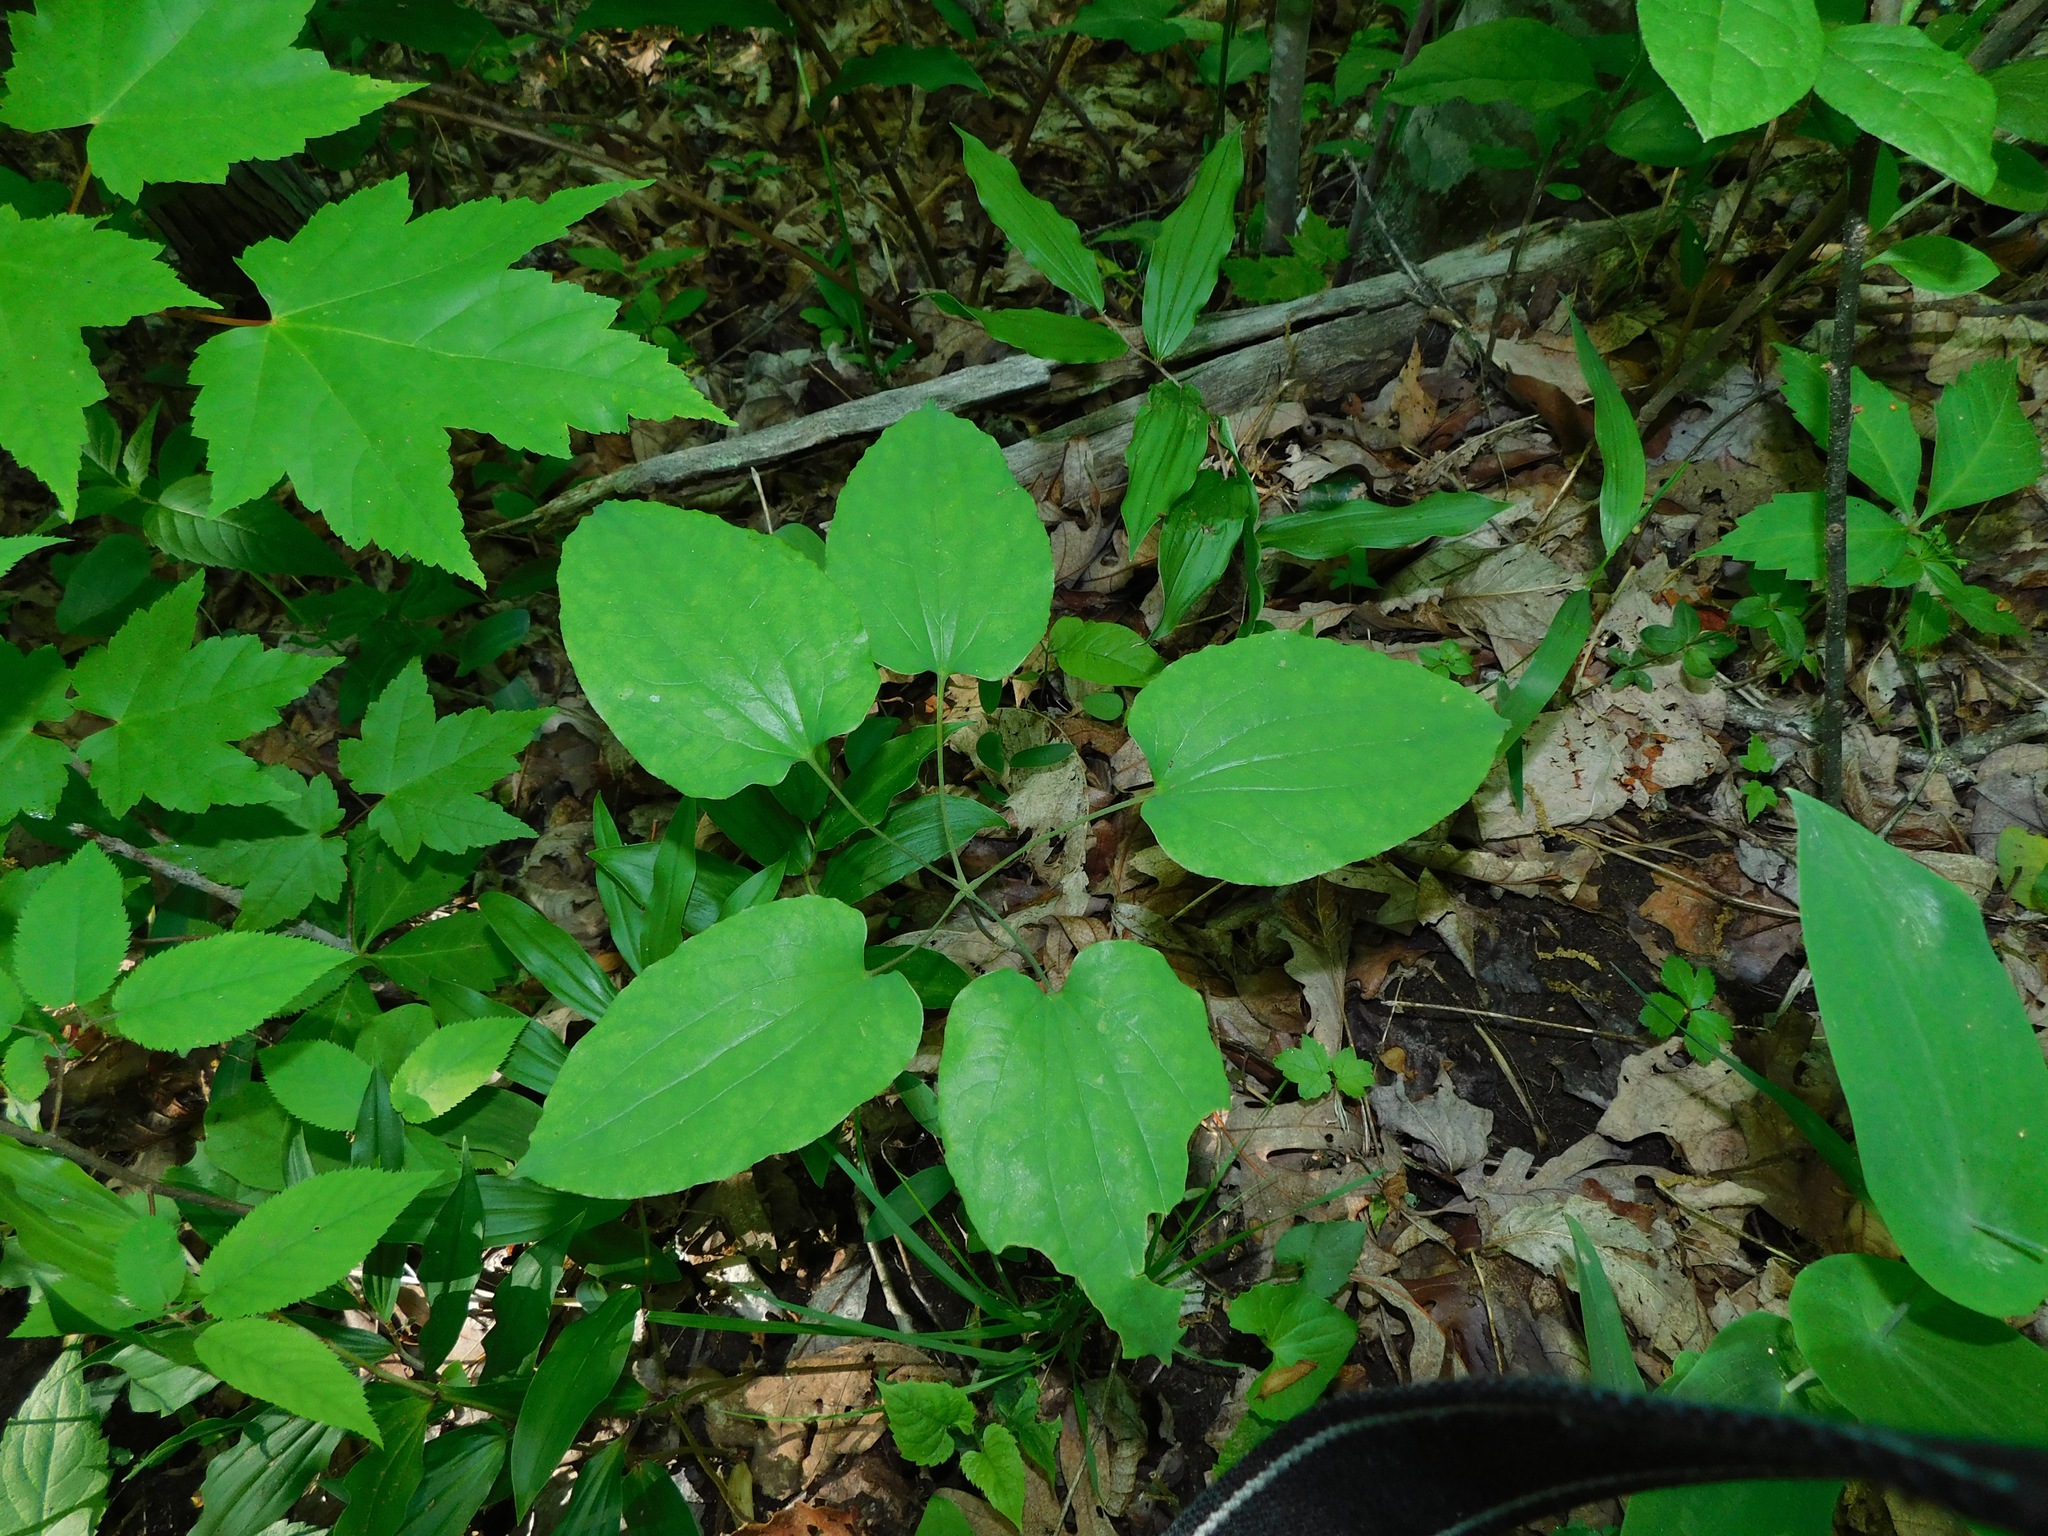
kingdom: Plantae
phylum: Tracheophyta
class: Liliopsida
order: Liliales
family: Smilacaceae
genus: Smilax
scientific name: Smilax biltmoreana
